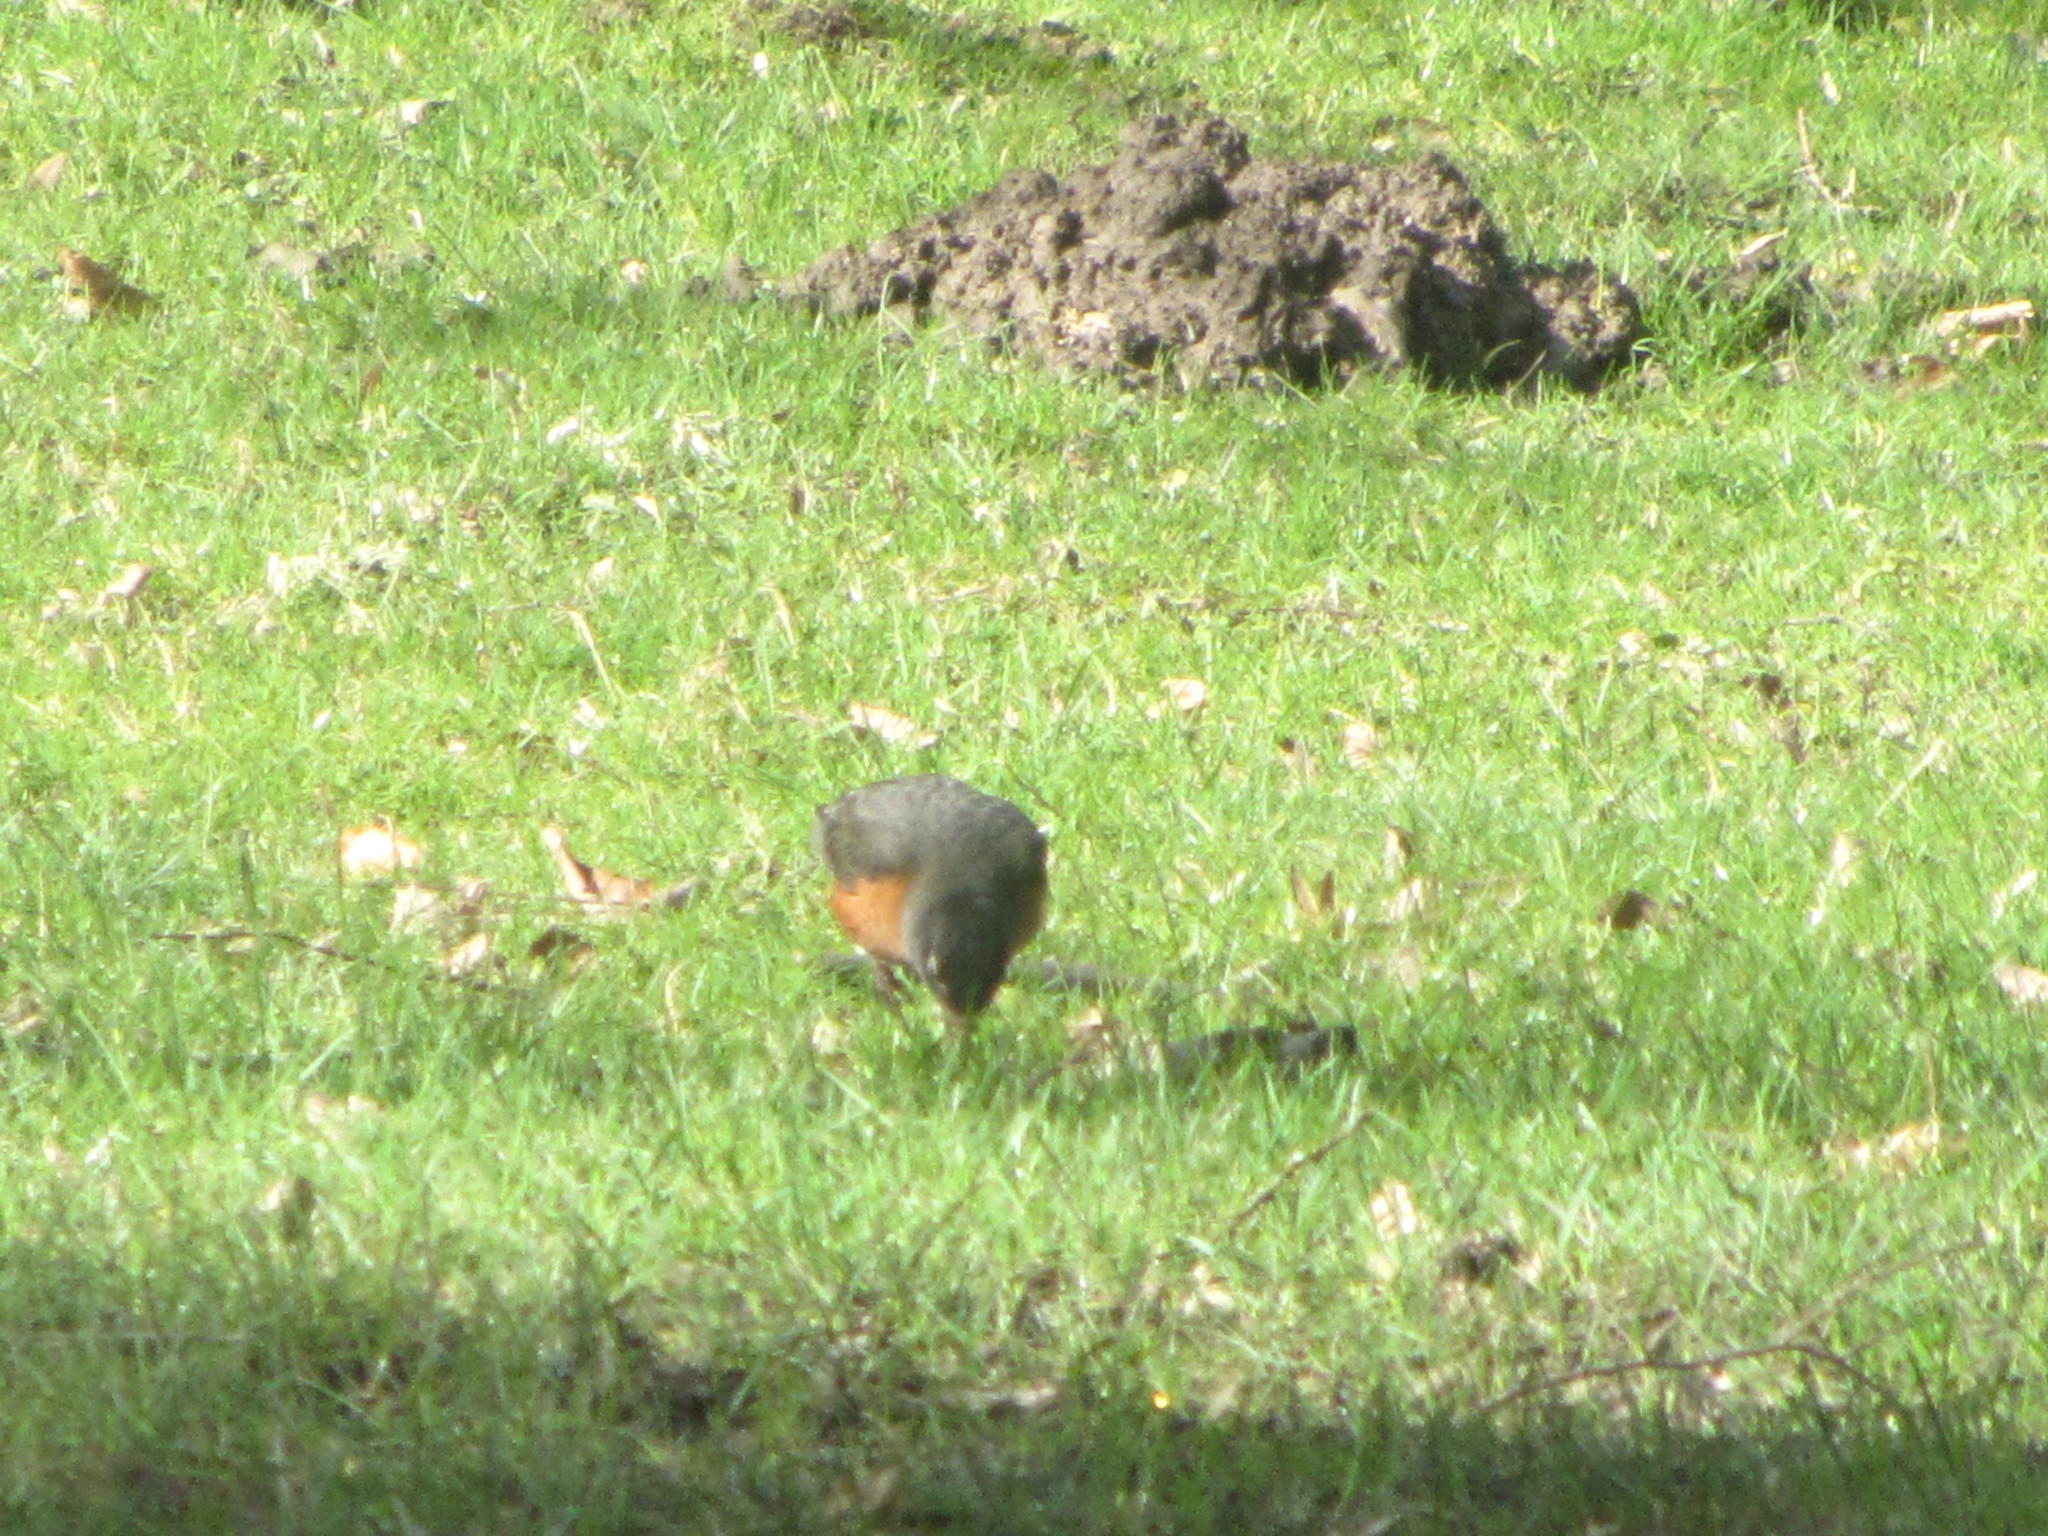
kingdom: Animalia
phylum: Chordata
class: Aves
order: Passeriformes
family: Turdidae
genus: Turdus
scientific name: Turdus migratorius
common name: American robin
